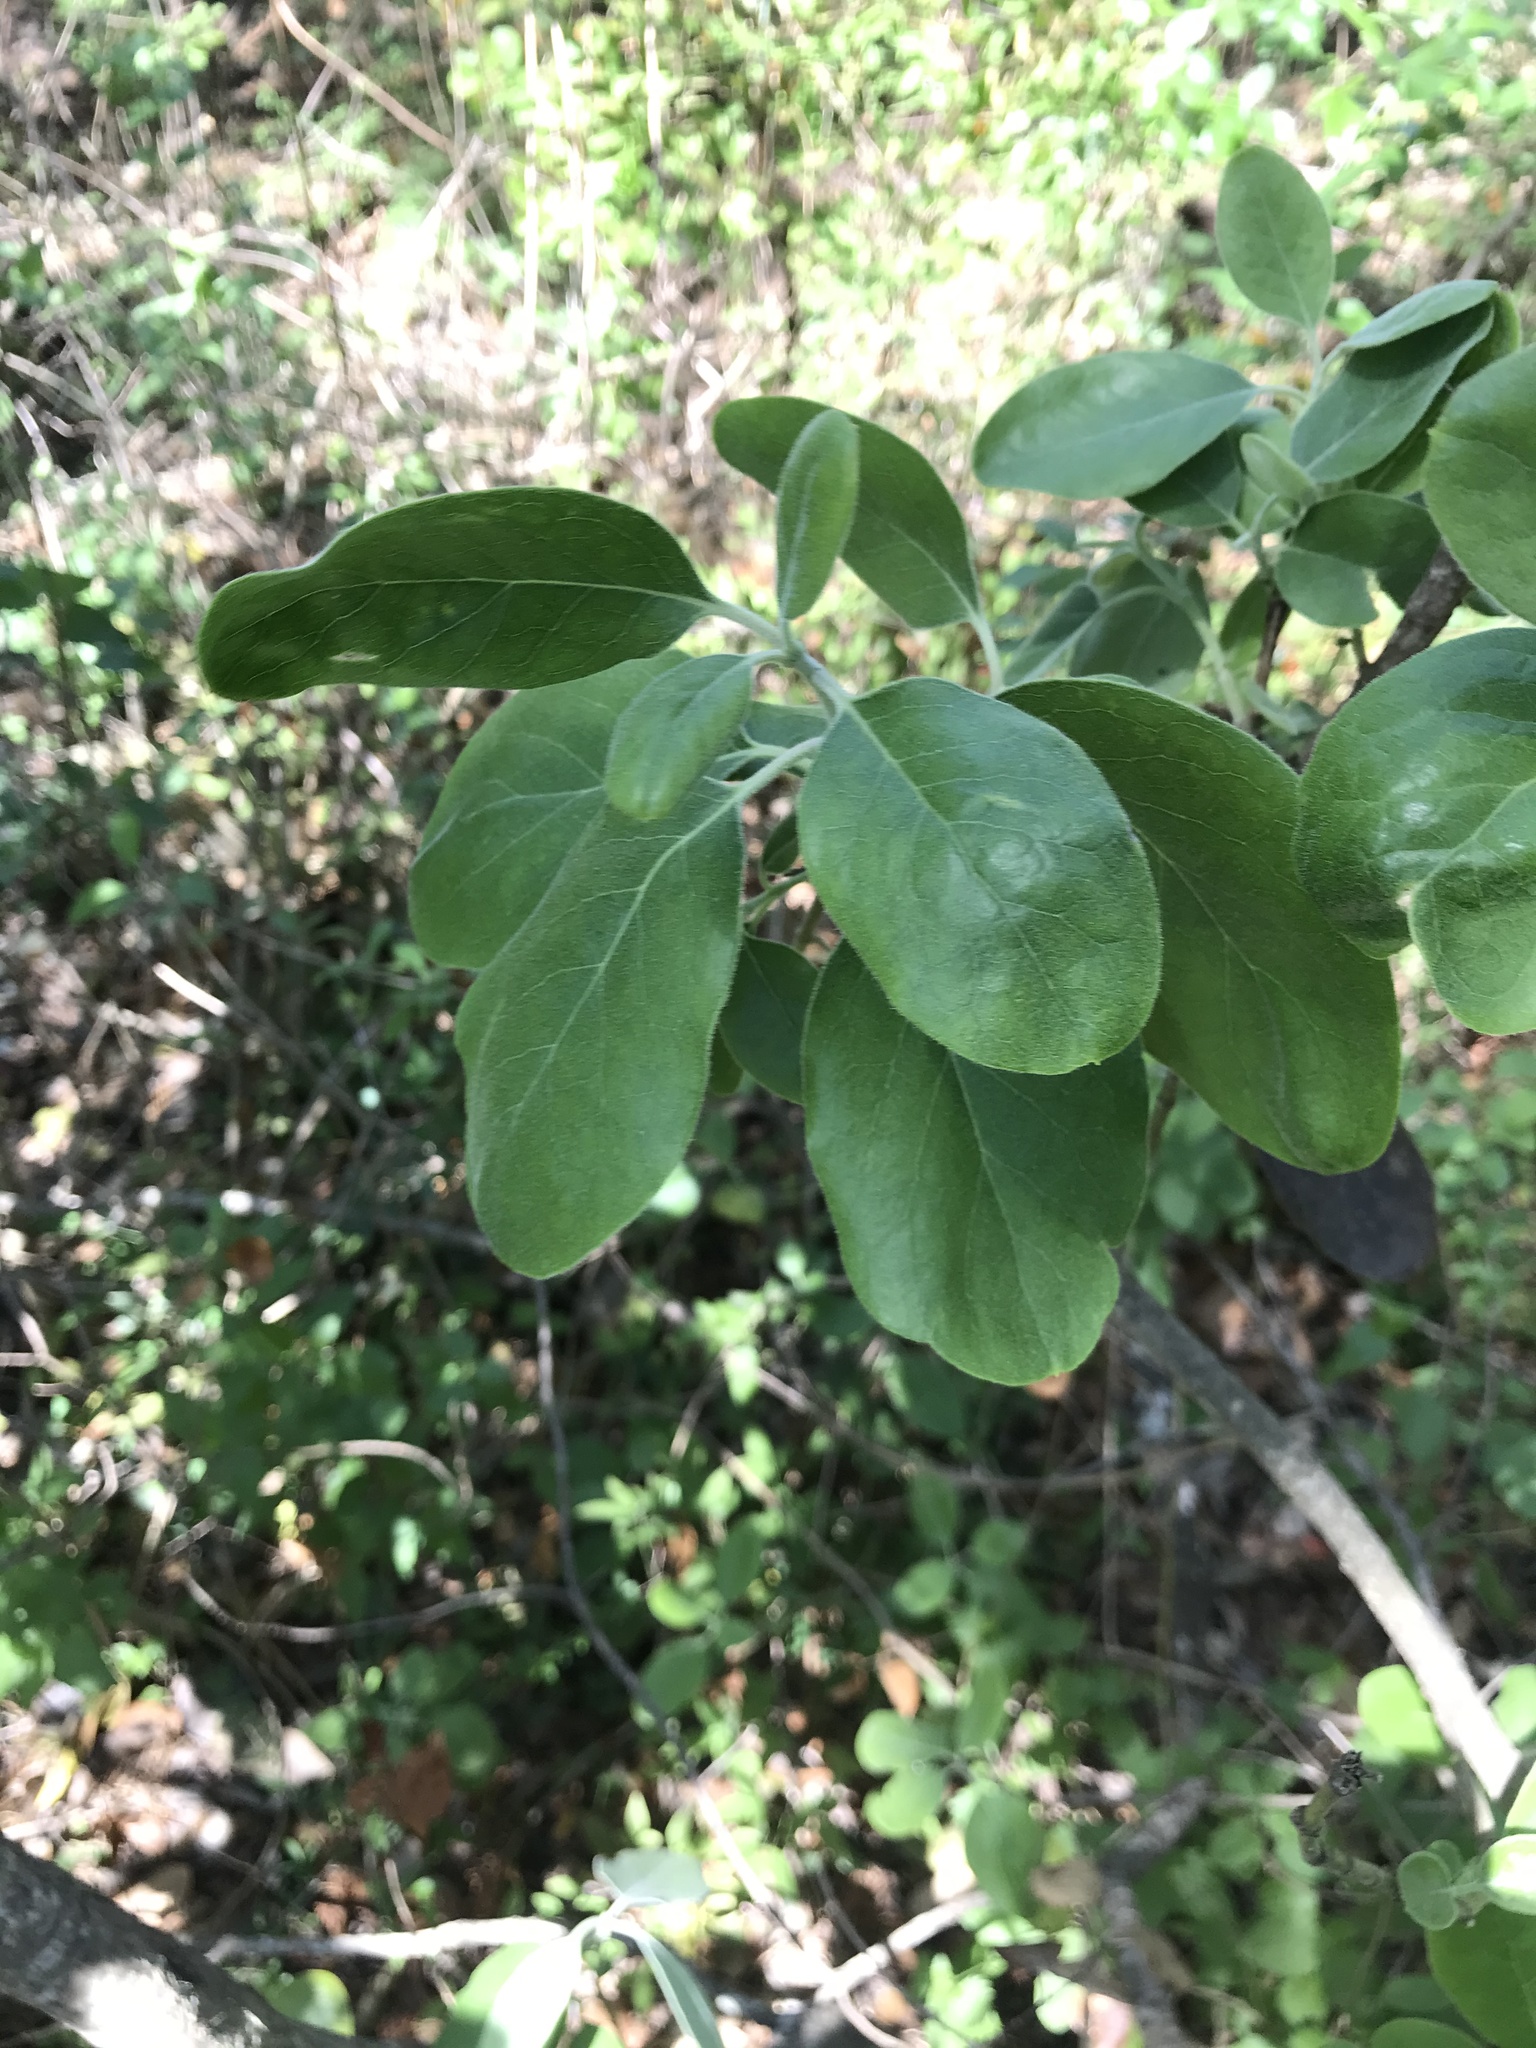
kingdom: Plantae
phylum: Tracheophyta
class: Magnoliopsida
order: Garryales
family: Garryaceae
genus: Garrya
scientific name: Garrya lindheimeri
